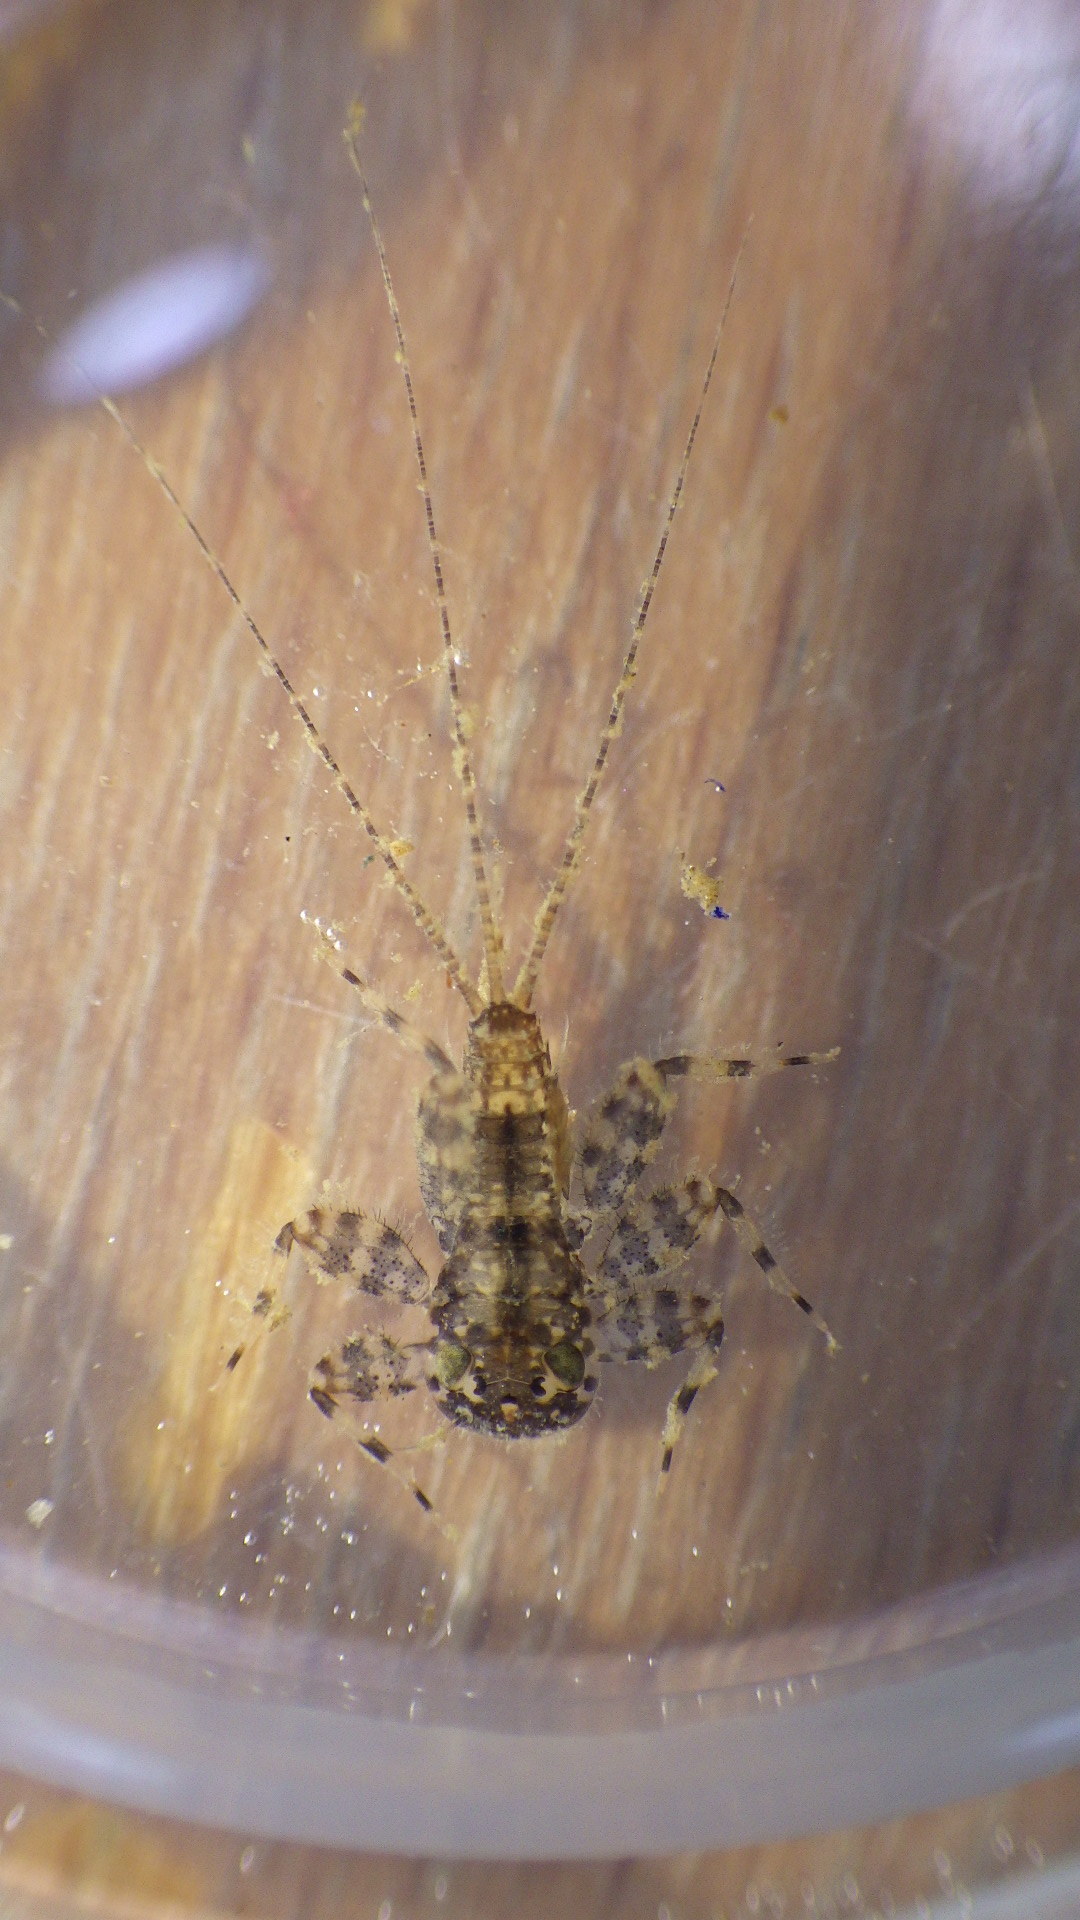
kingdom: Animalia
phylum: Arthropoda
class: Insecta
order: Ephemeroptera
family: Heptageniidae
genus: Maccaffertium
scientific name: Maccaffertium mediopunctatum
